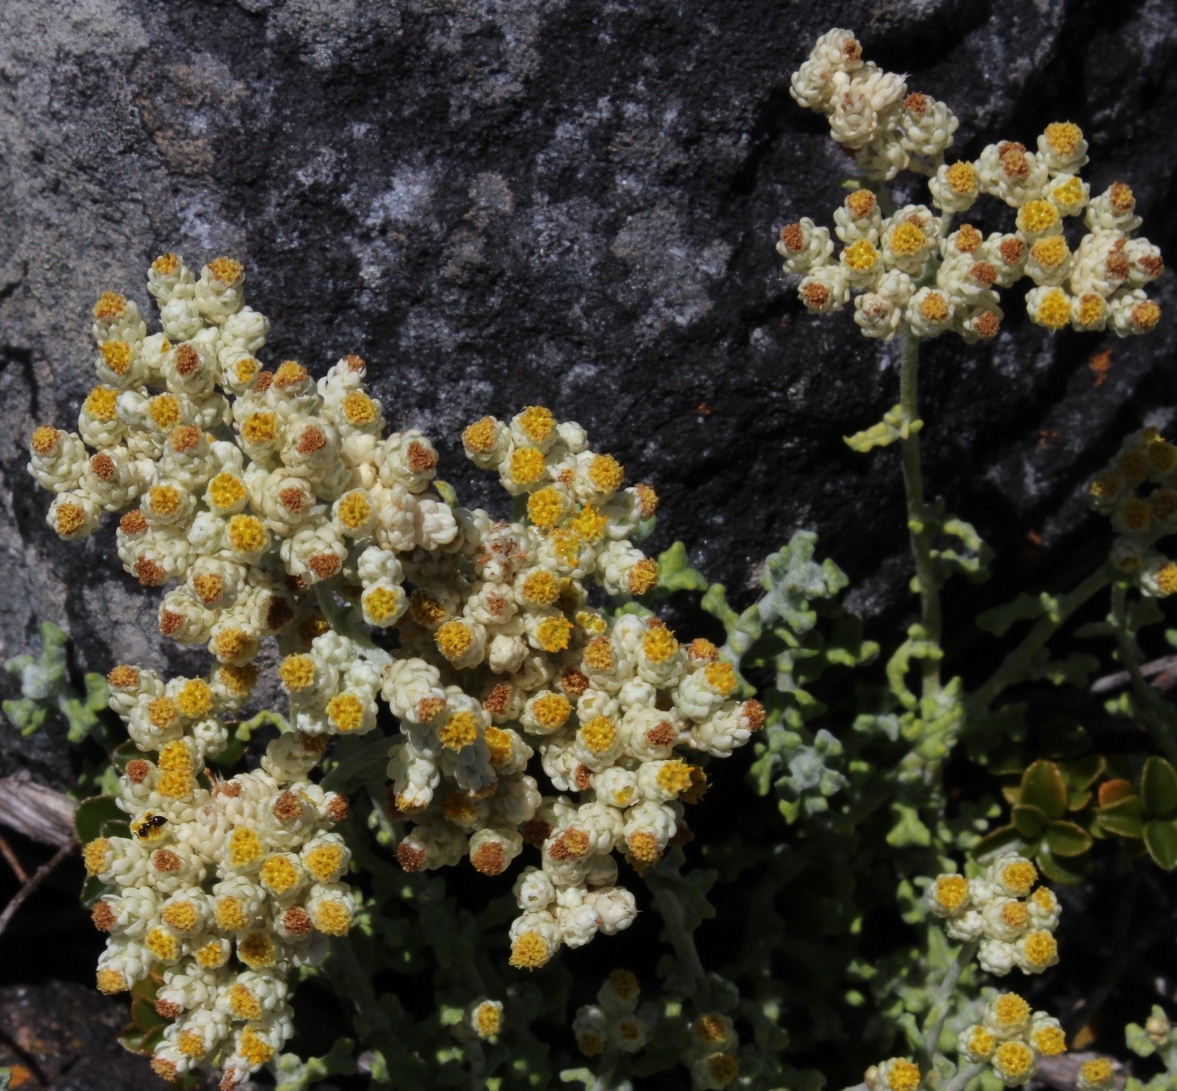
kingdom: Plantae
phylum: Tracheophyta
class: Magnoliopsida
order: Asterales
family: Asteraceae
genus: Helichrysum
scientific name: Helichrysum patulum
